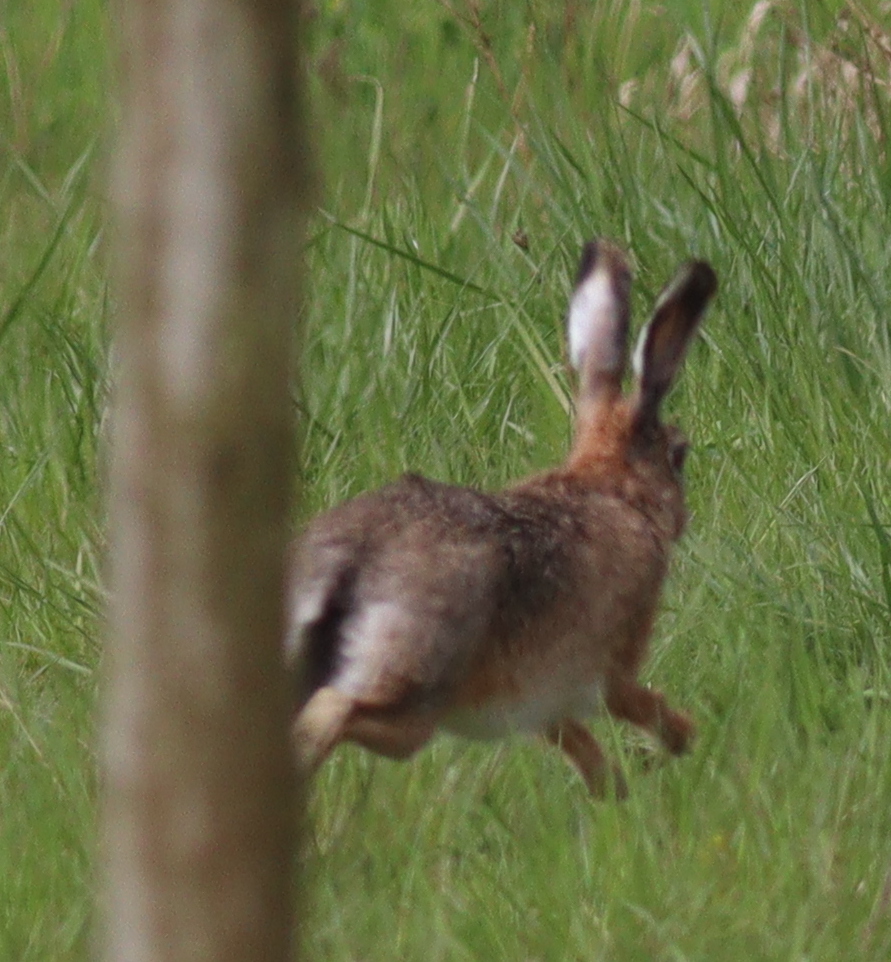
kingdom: Animalia
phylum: Chordata
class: Mammalia
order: Lagomorpha
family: Leporidae
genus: Lepus
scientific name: Lepus europaeus
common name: European hare
